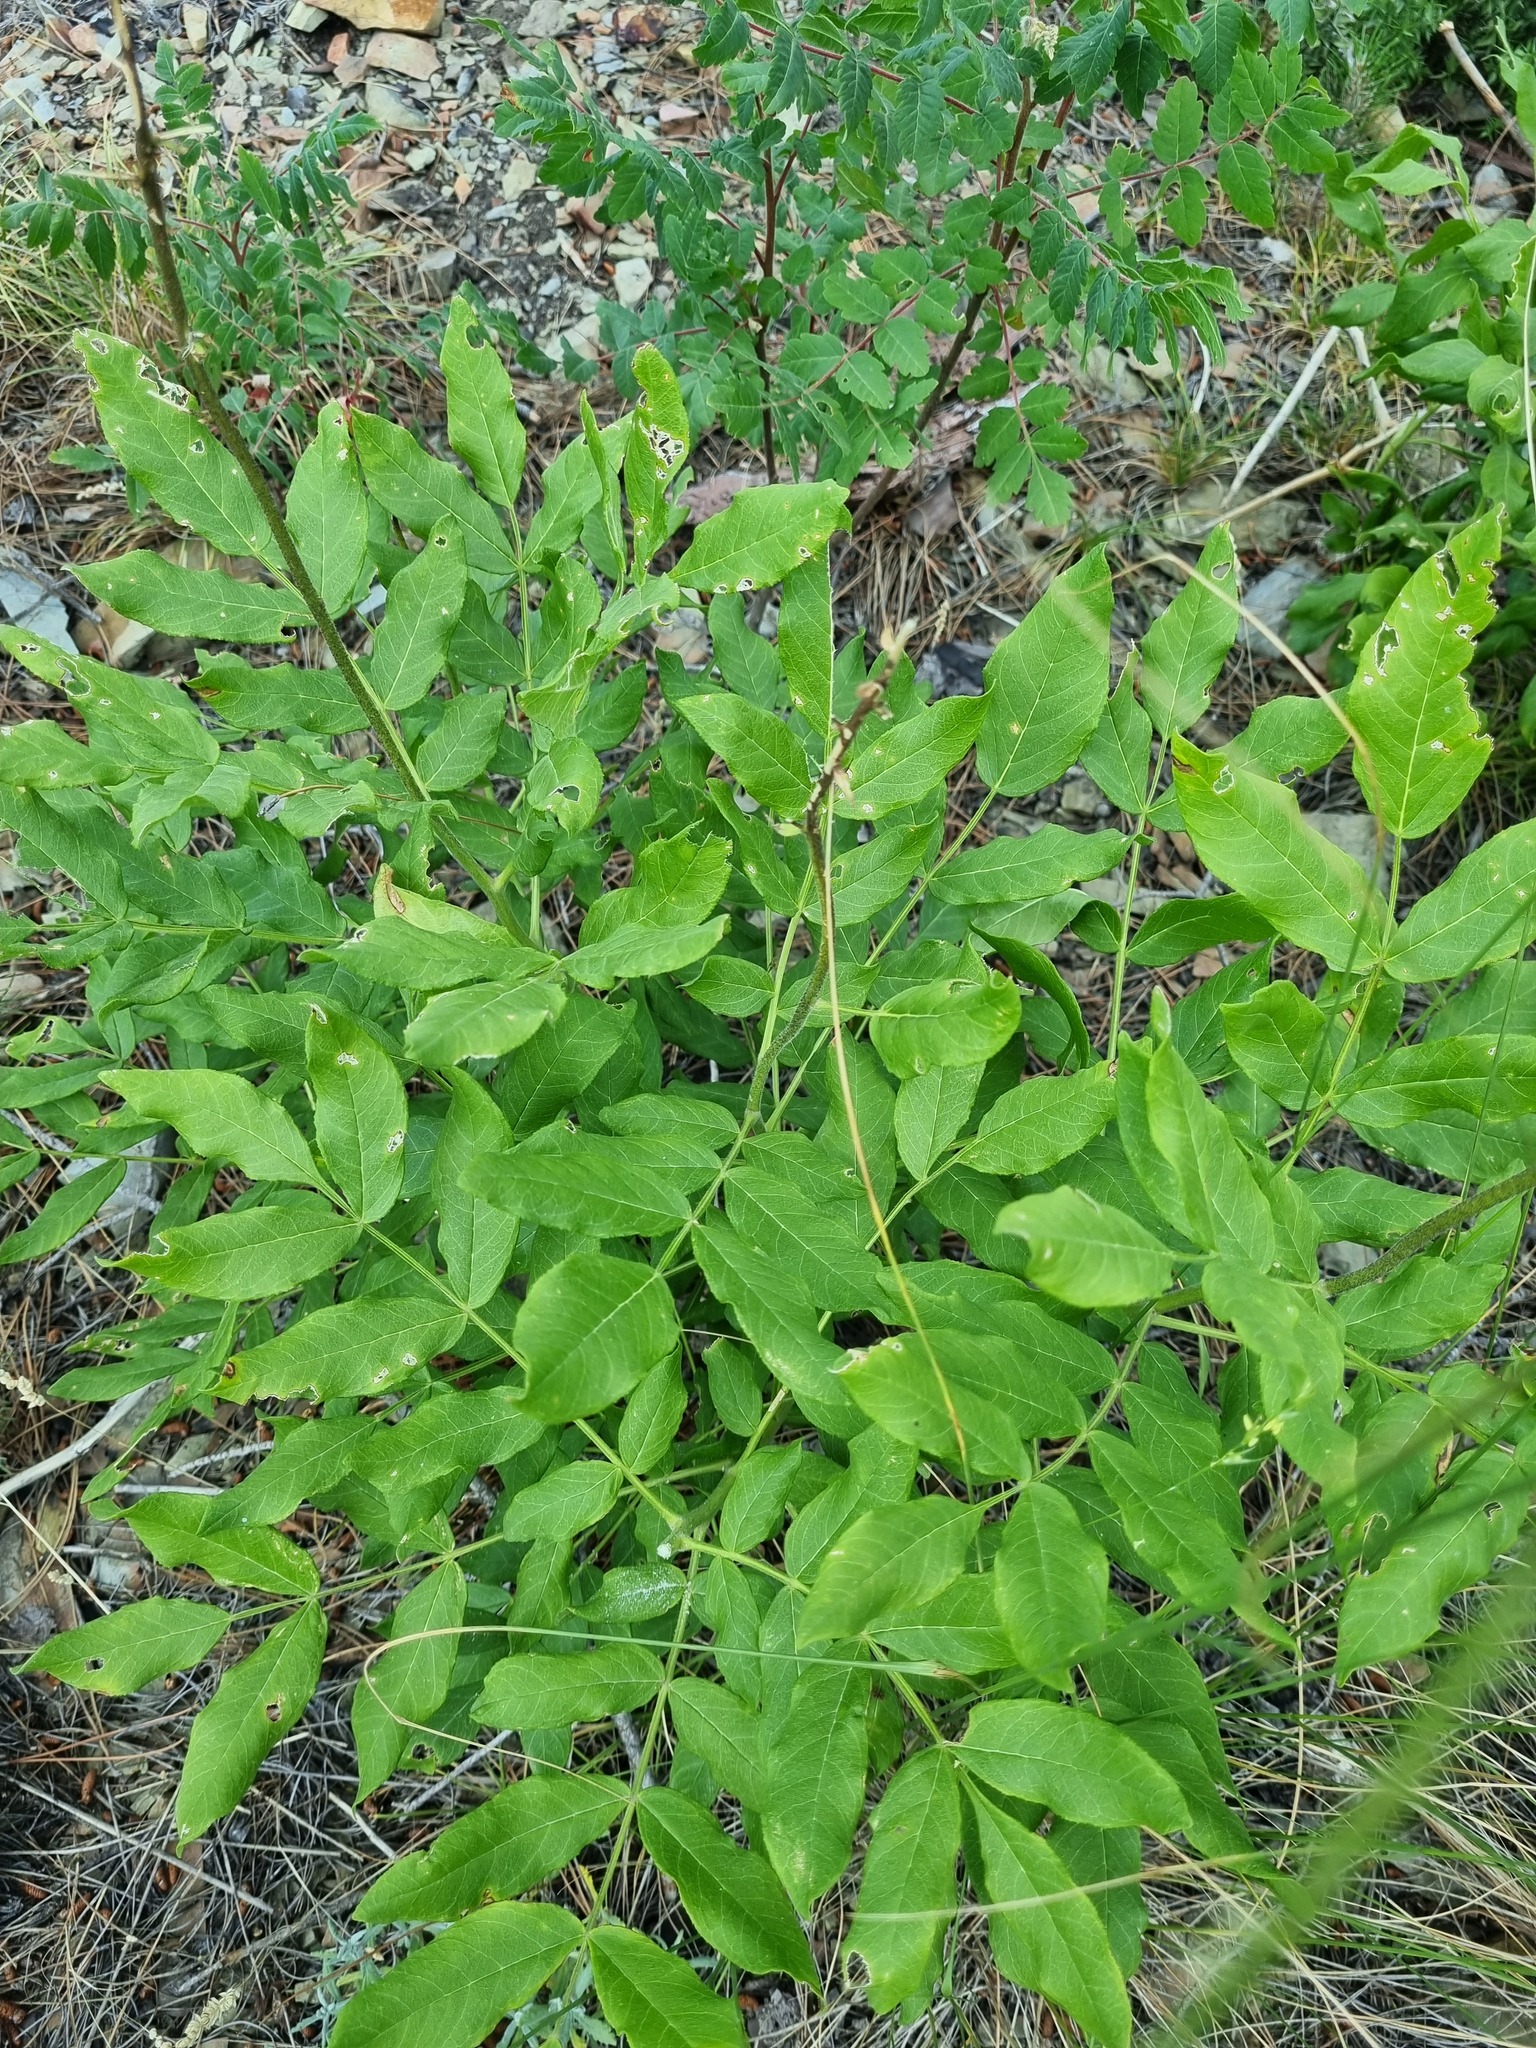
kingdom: Plantae
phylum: Tracheophyta
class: Magnoliopsida
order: Sapindales
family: Rutaceae
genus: Dictamnus
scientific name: Dictamnus albus
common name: Gasplant
